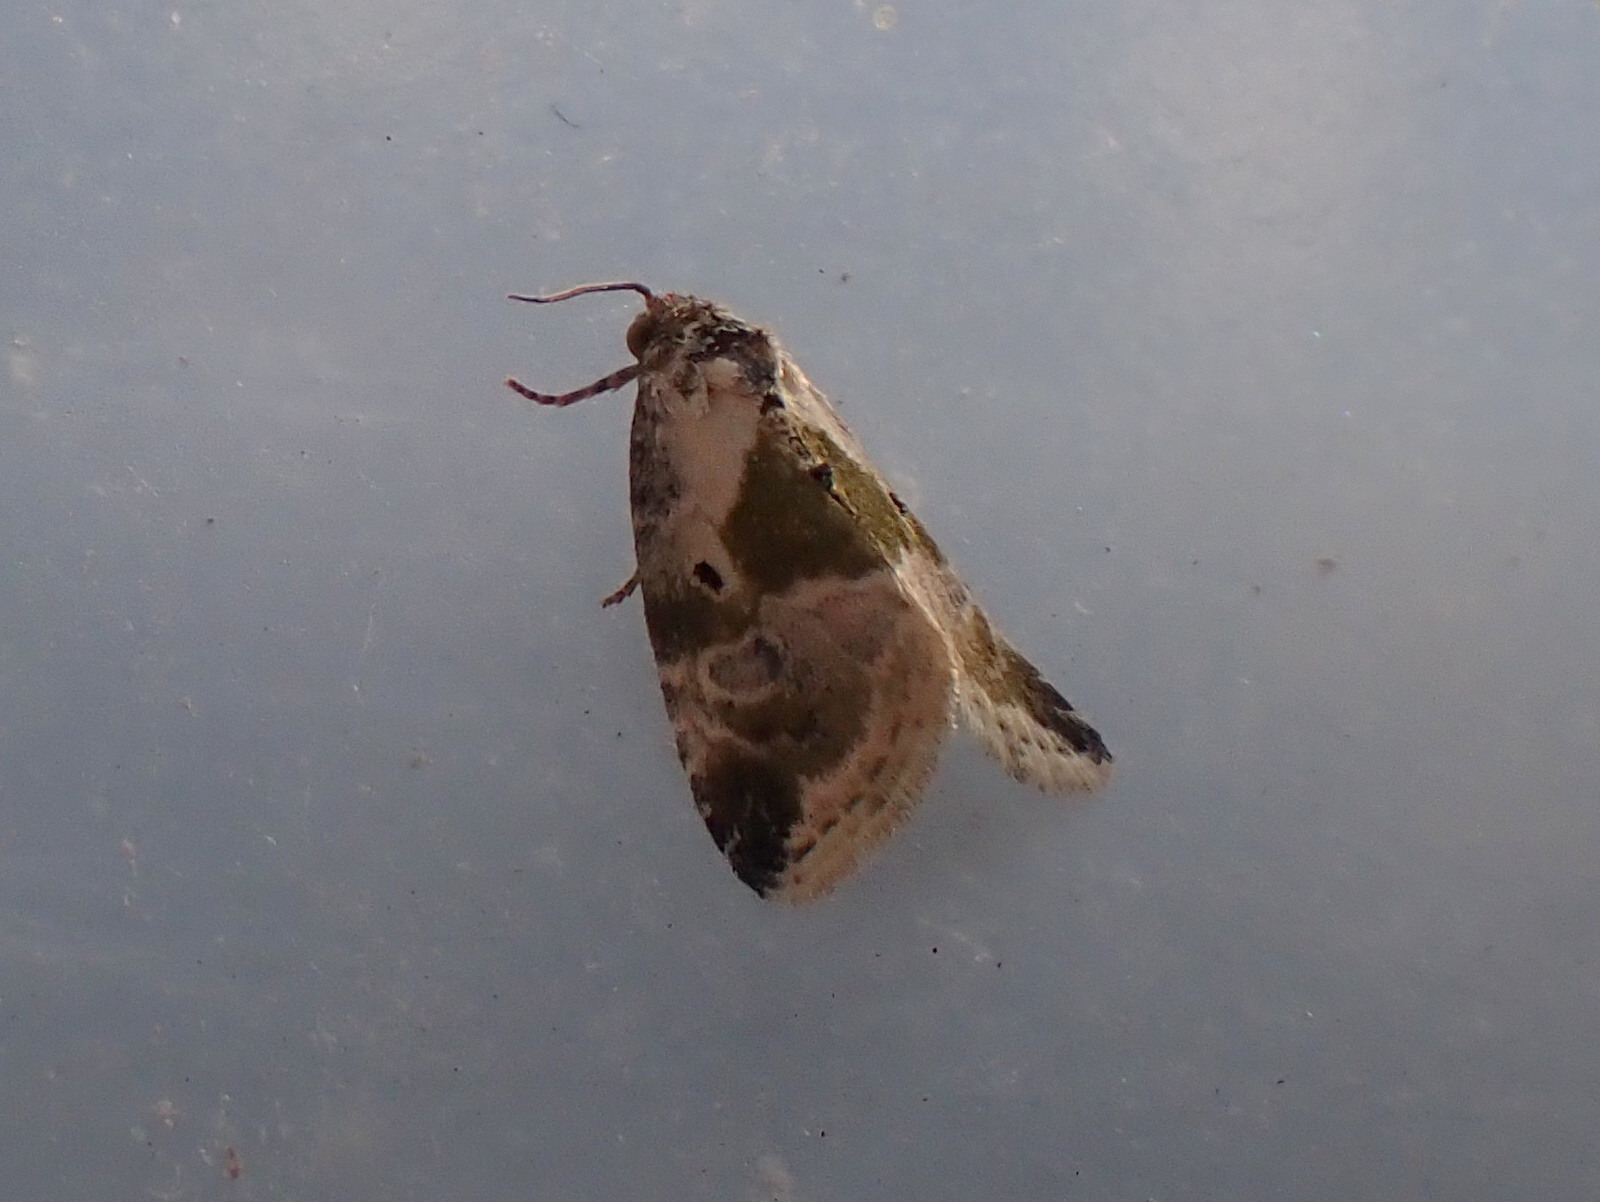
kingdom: Animalia
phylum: Arthropoda
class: Insecta
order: Lepidoptera
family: Noctuidae
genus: Maliattha
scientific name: Maliattha synochitis
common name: Black-dotted glyph
